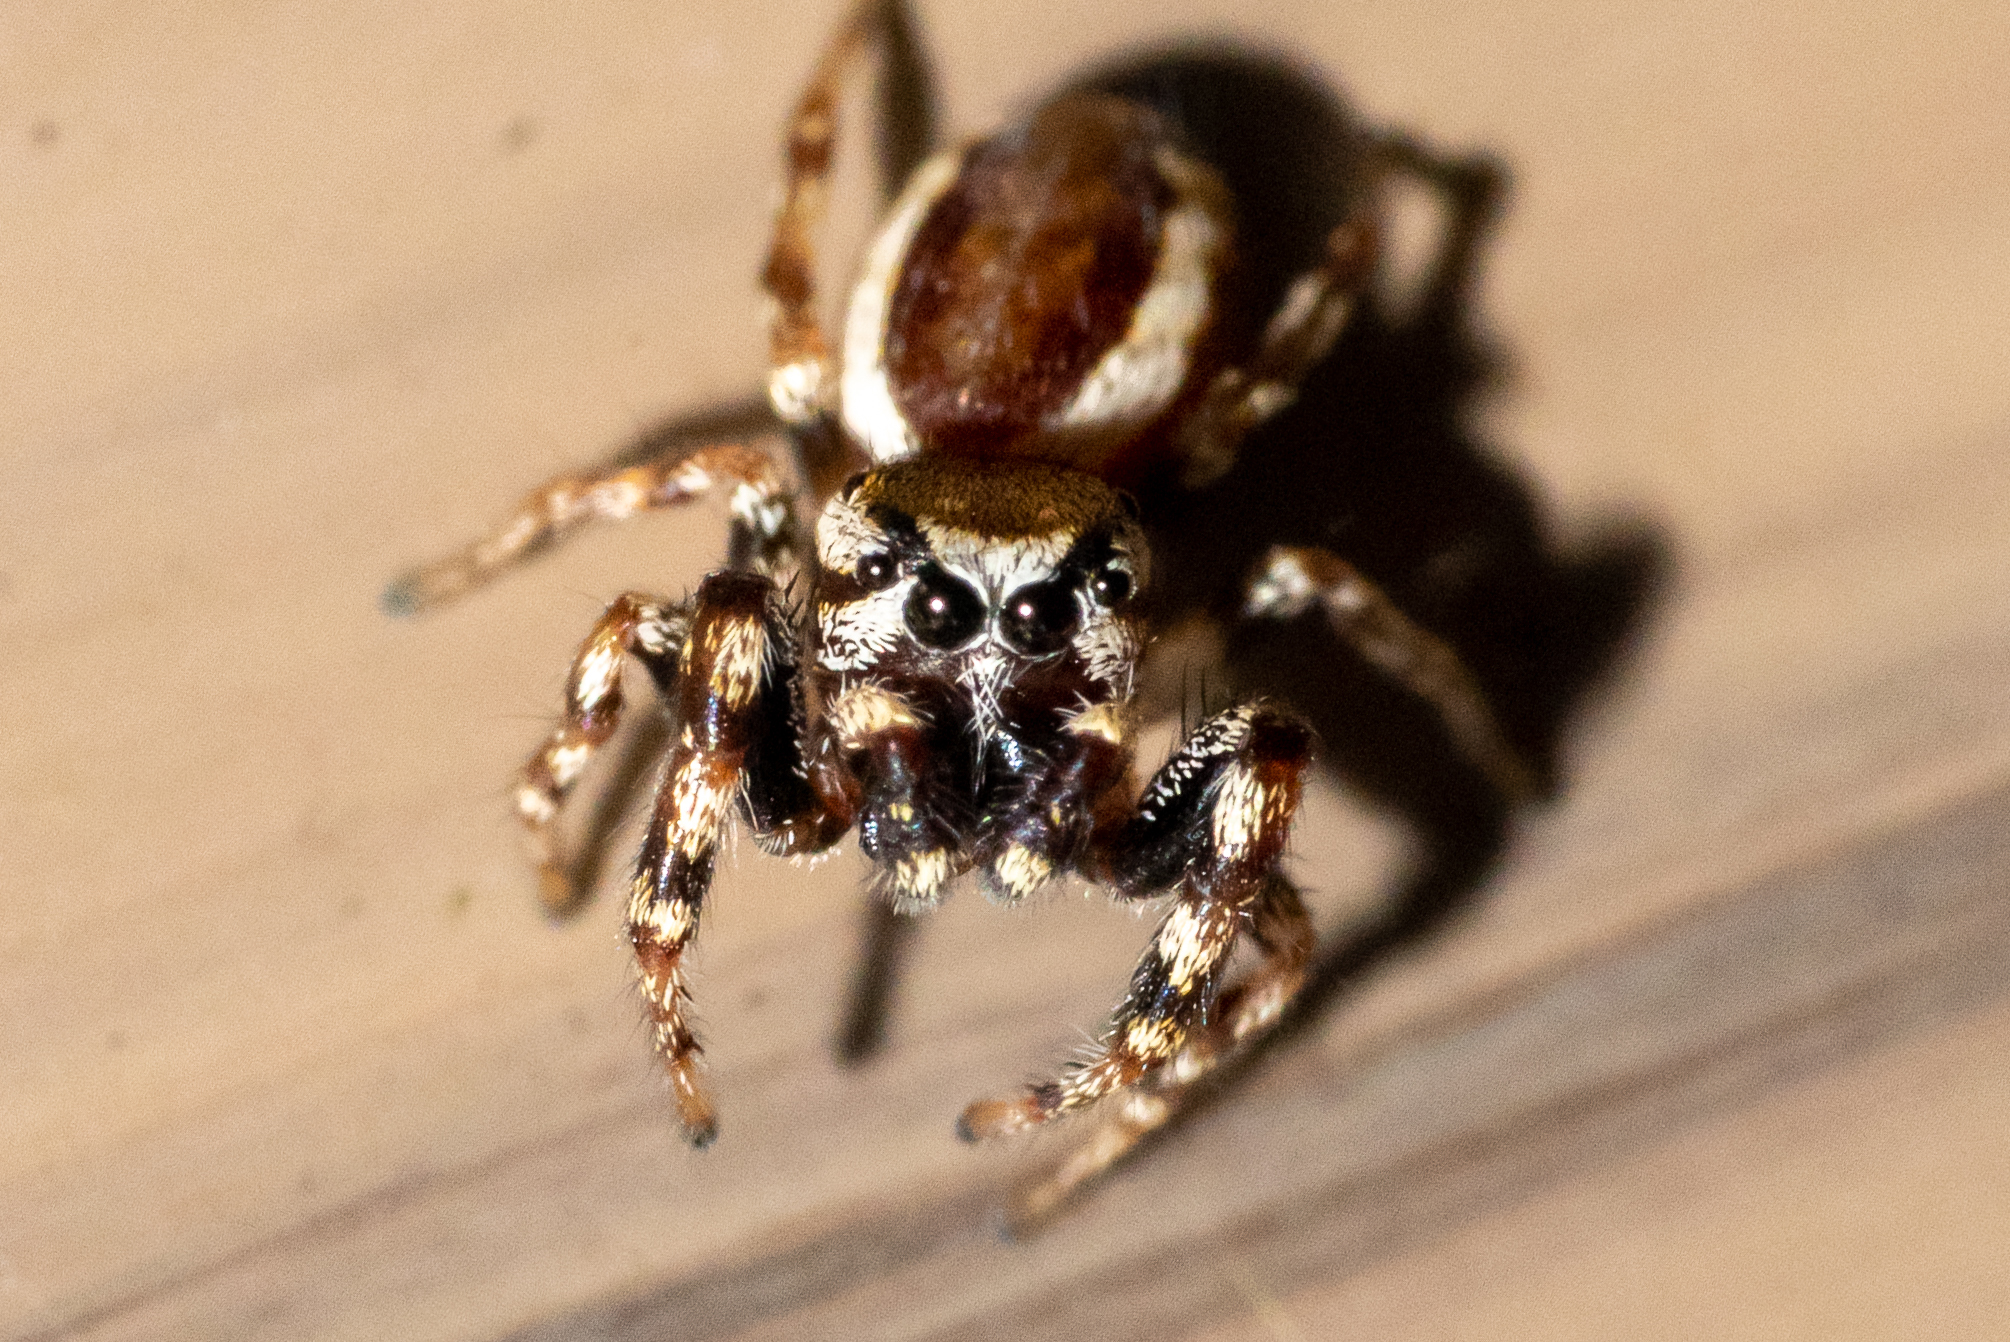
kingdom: Animalia
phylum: Arthropoda
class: Arachnida
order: Araneae
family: Salticidae
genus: Pelegrina
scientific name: Pelegrina proterva
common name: Common white-cheeked jumping spider
